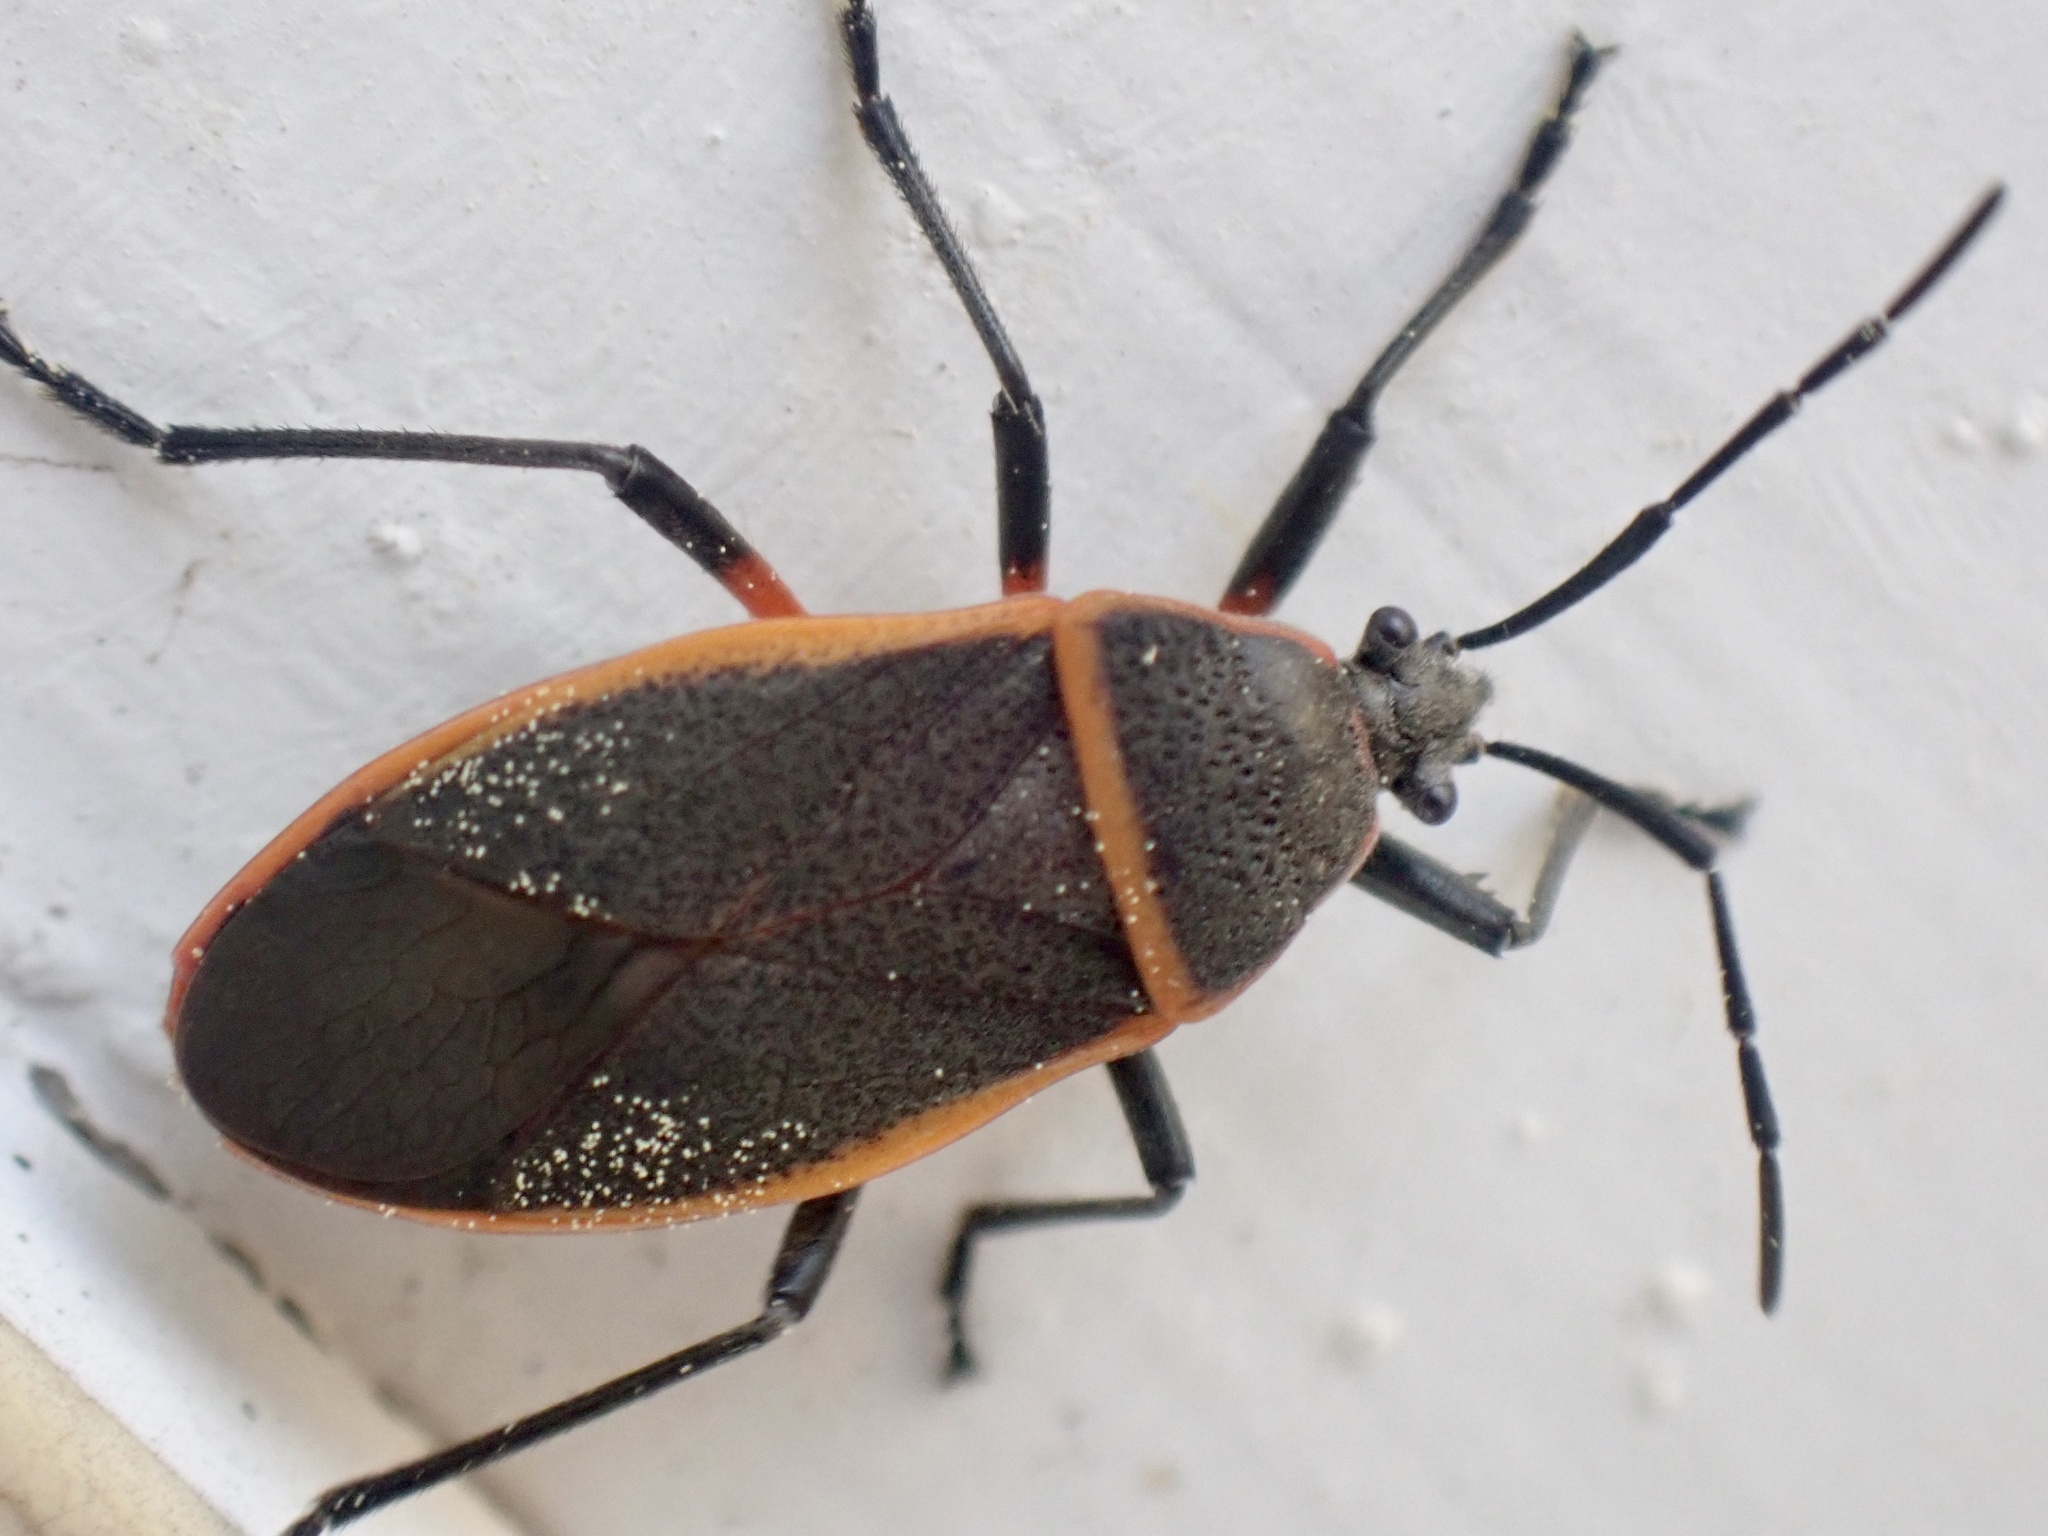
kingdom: Animalia
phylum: Arthropoda
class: Insecta
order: Hemiptera
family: Largidae
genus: Largus
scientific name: Largus succinctus
